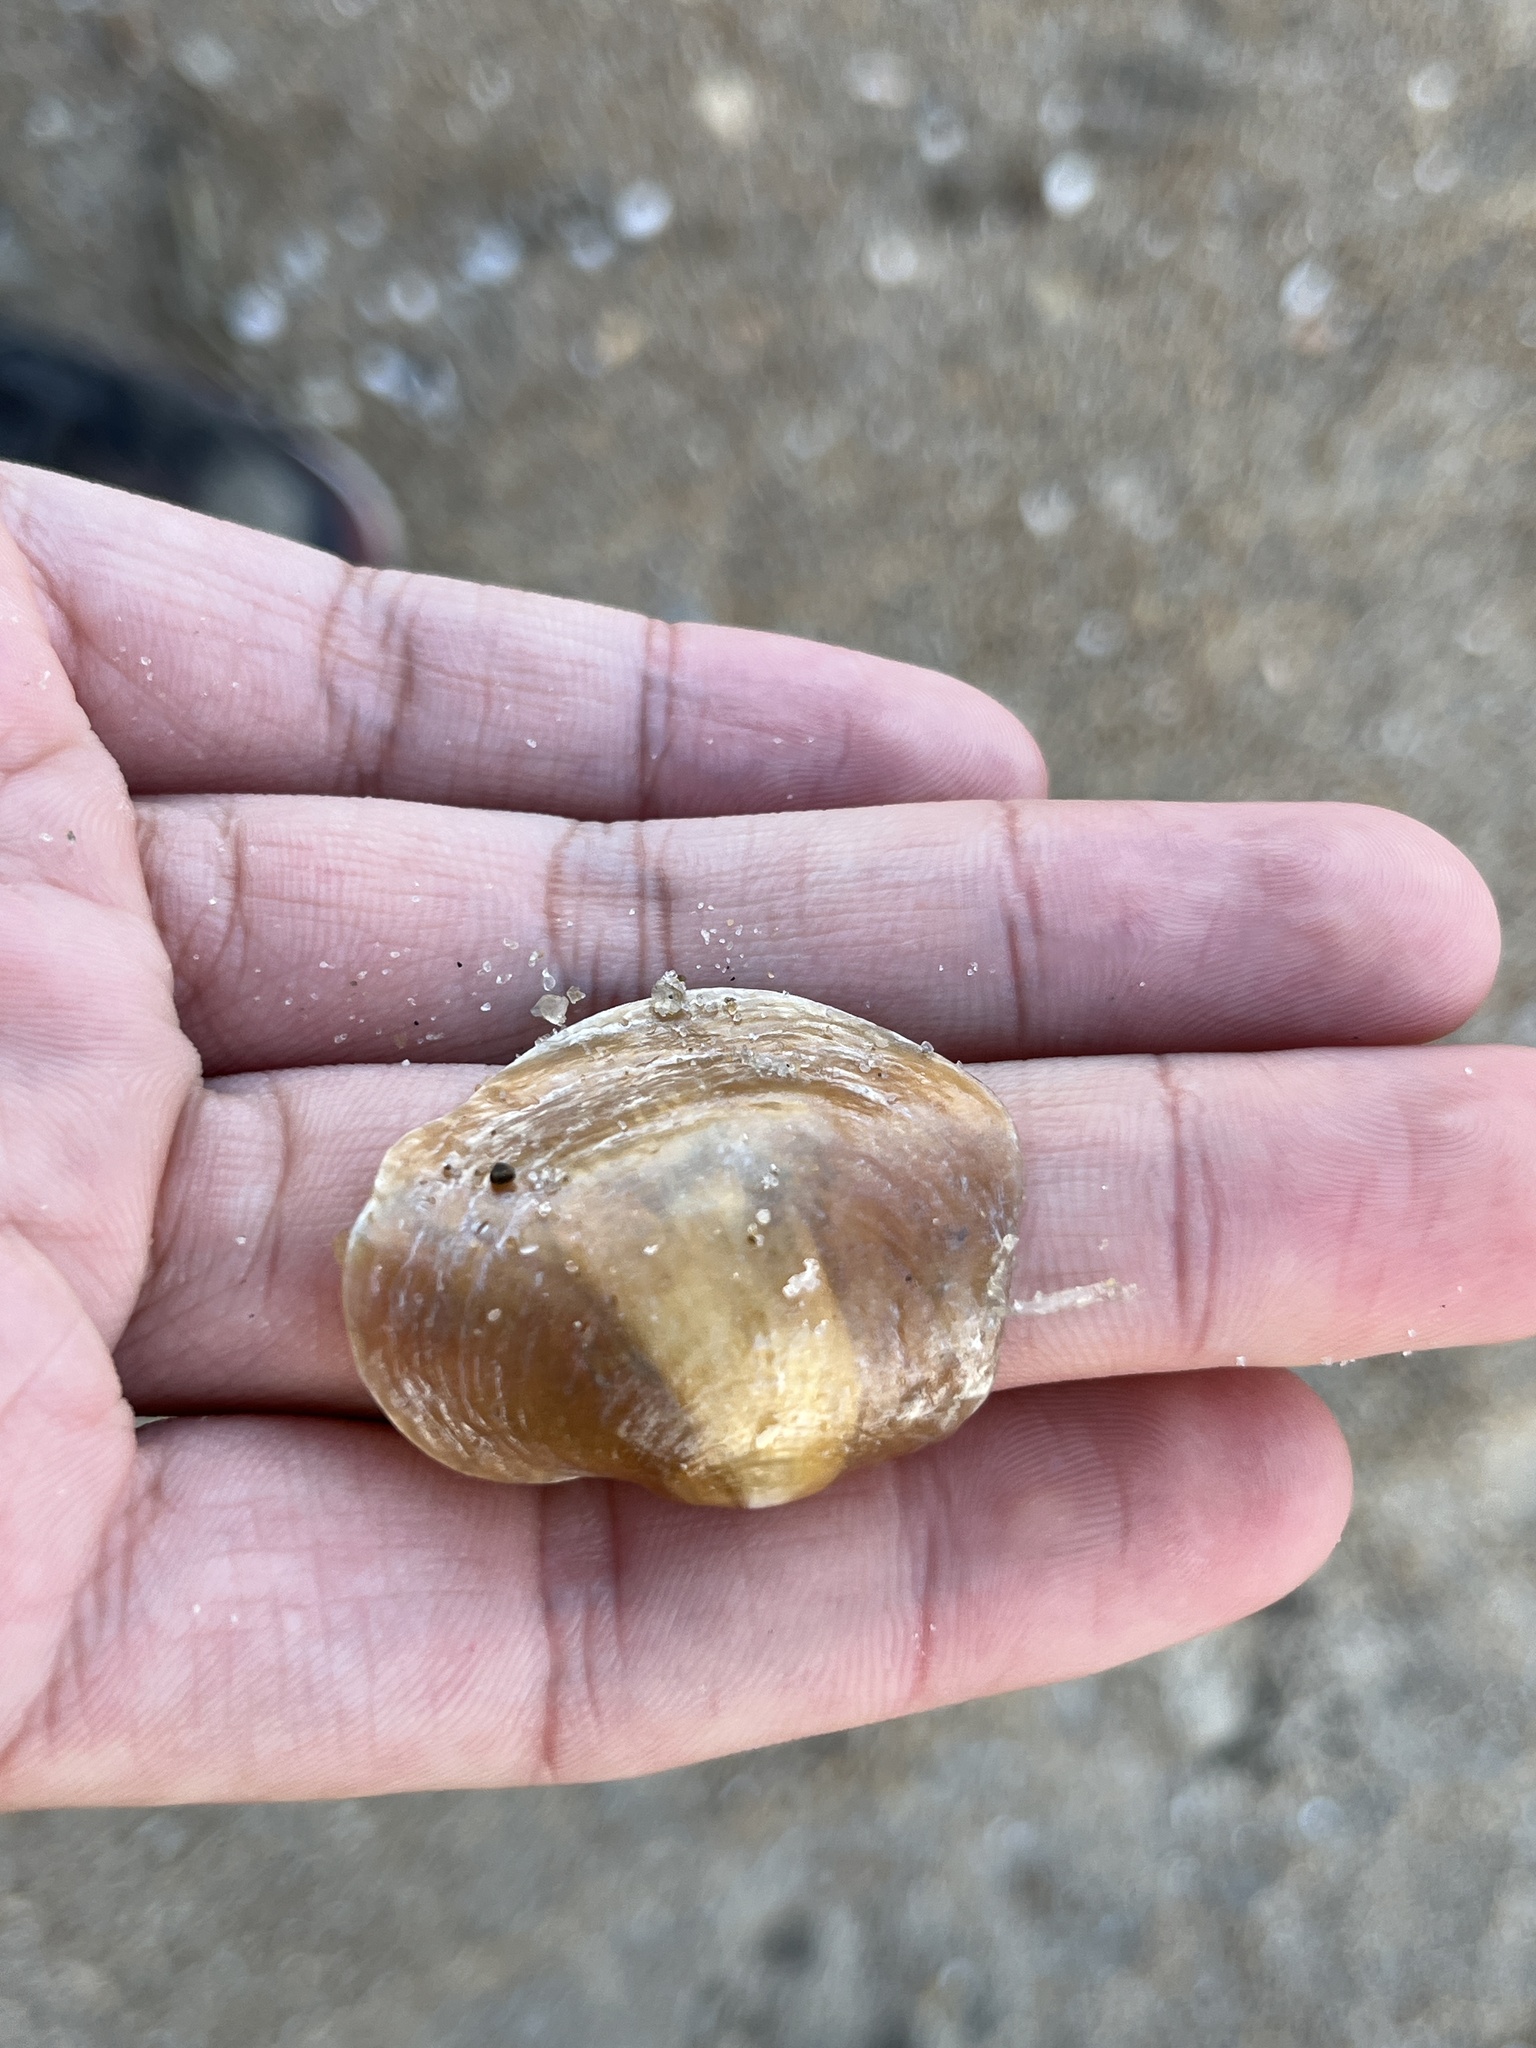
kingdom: Animalia
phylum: Mollusca
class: Bivalvia
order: Pectinida
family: Anomiidae
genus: Anomia
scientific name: Anomia simplex
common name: Common jingle shell
